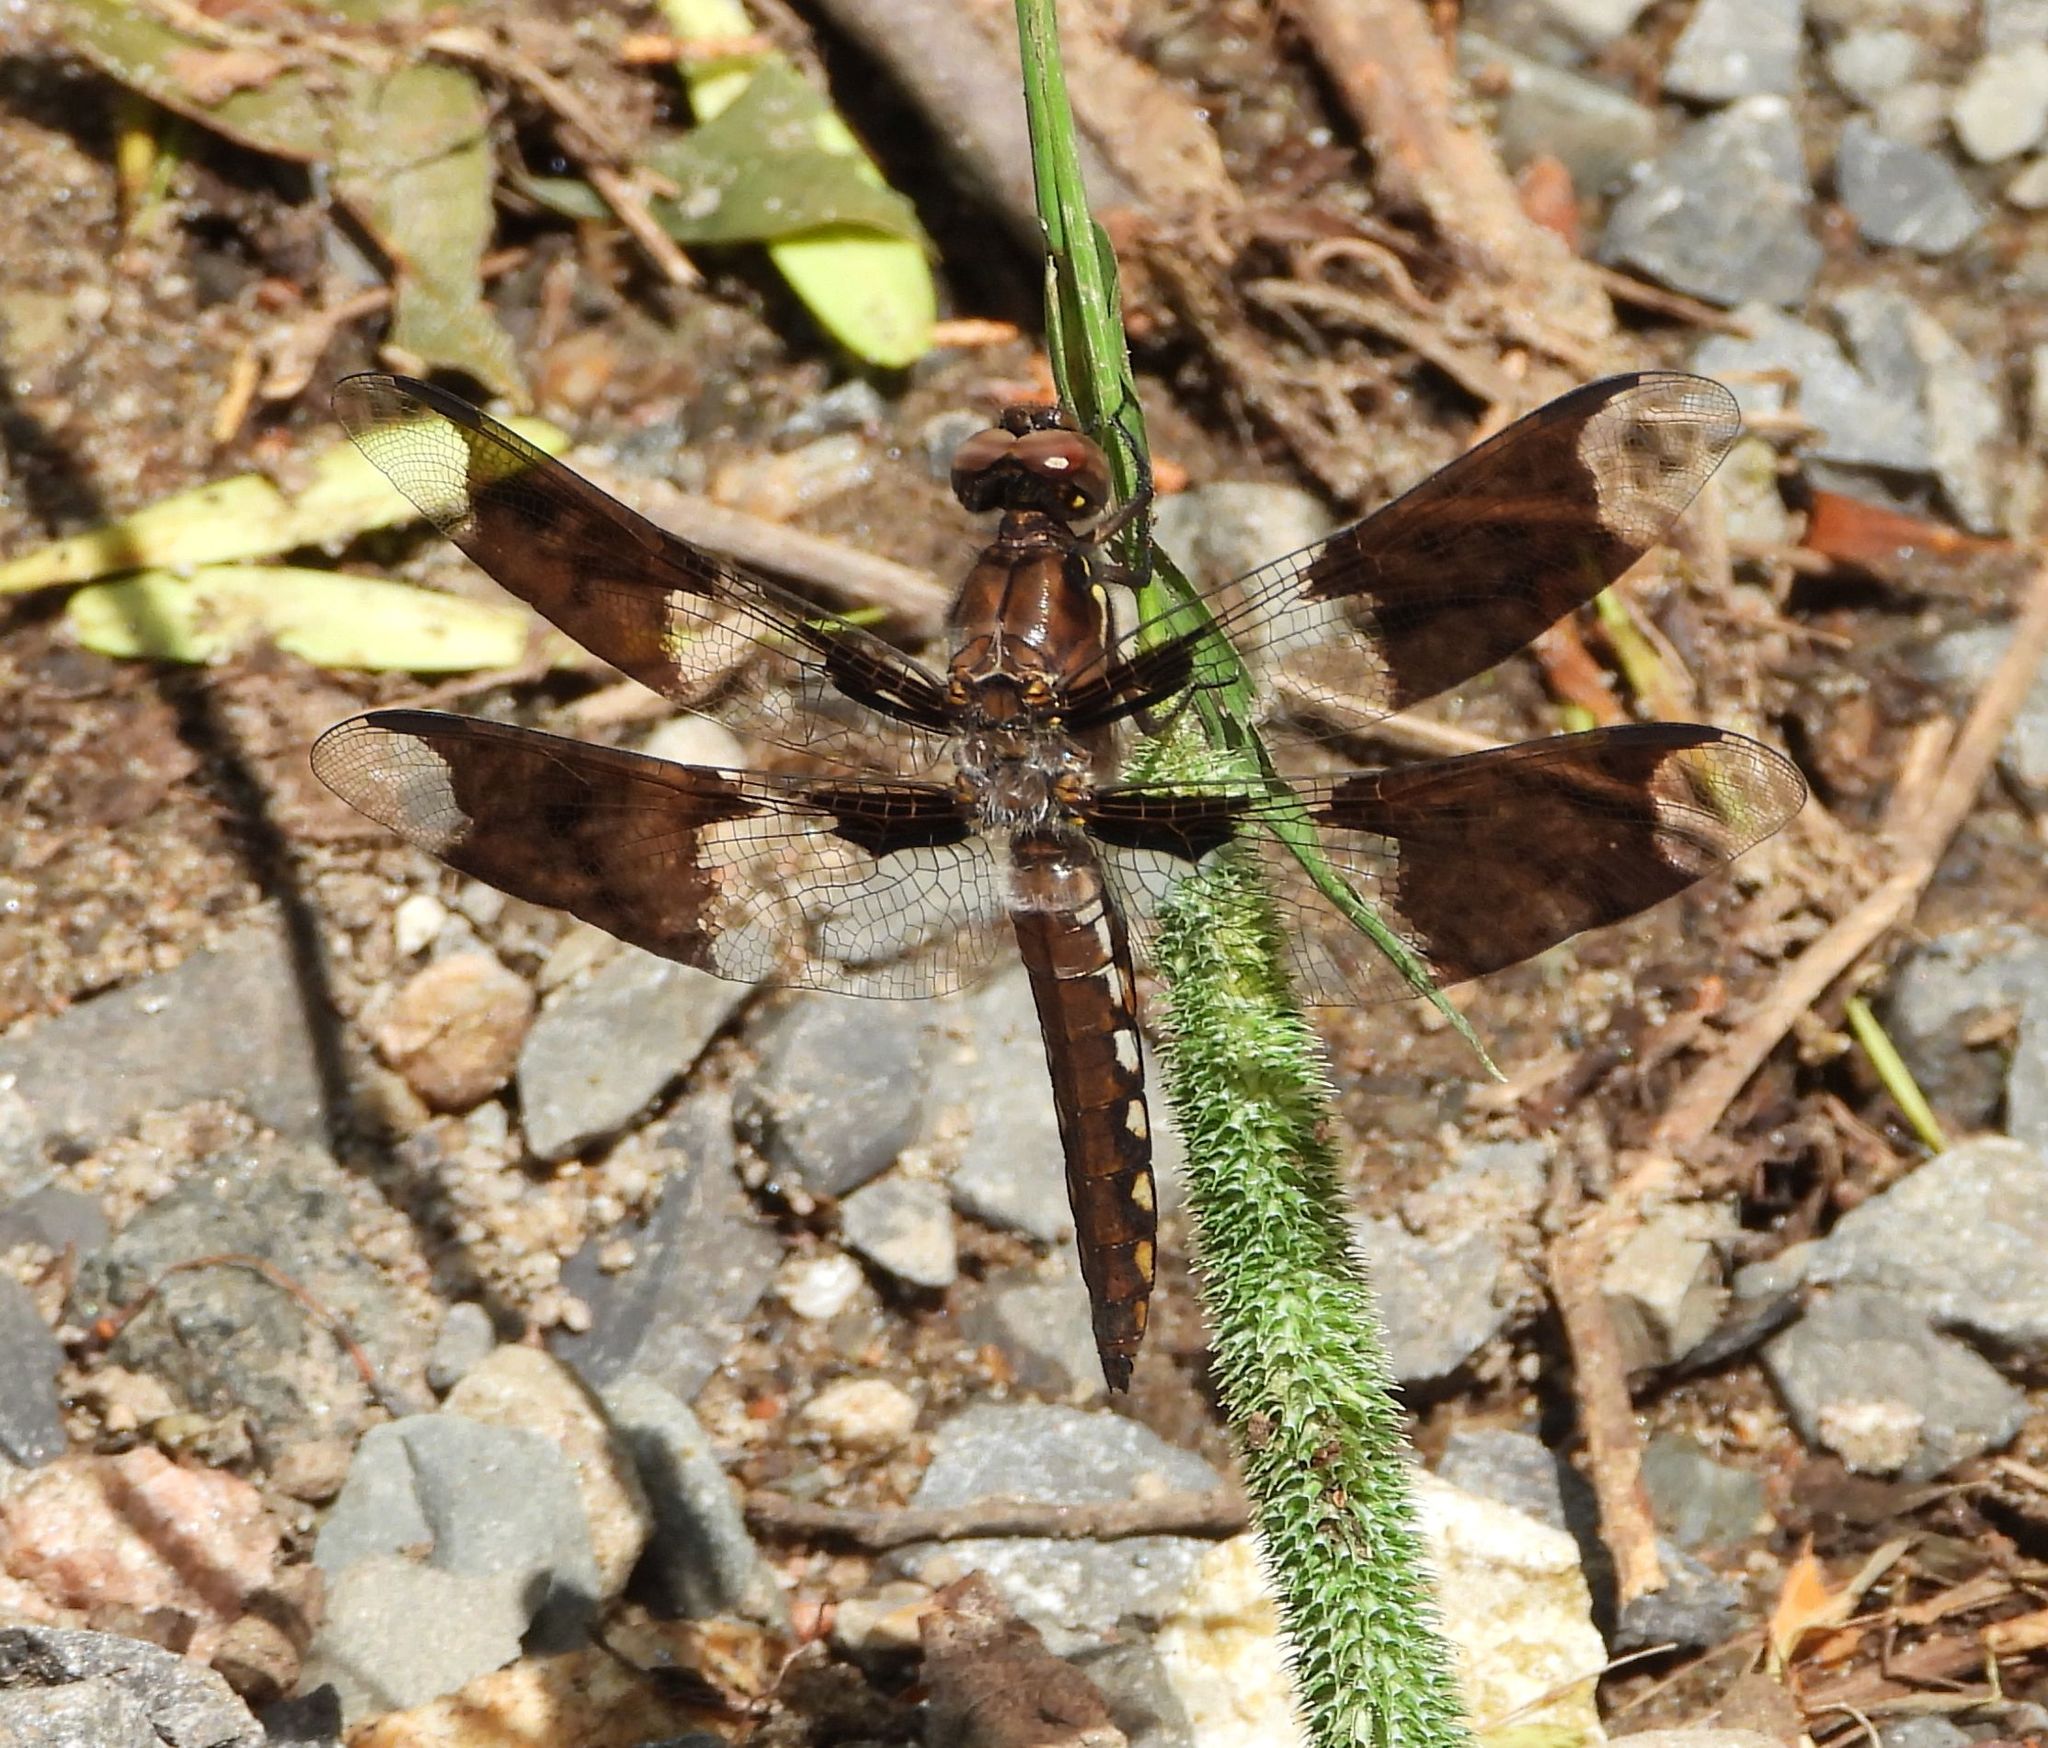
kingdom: Animalia
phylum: Arthropoda
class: Insecta
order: Odonata
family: Libellulidae
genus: Plathemis
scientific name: Plathemis lydia
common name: Common whitetail
